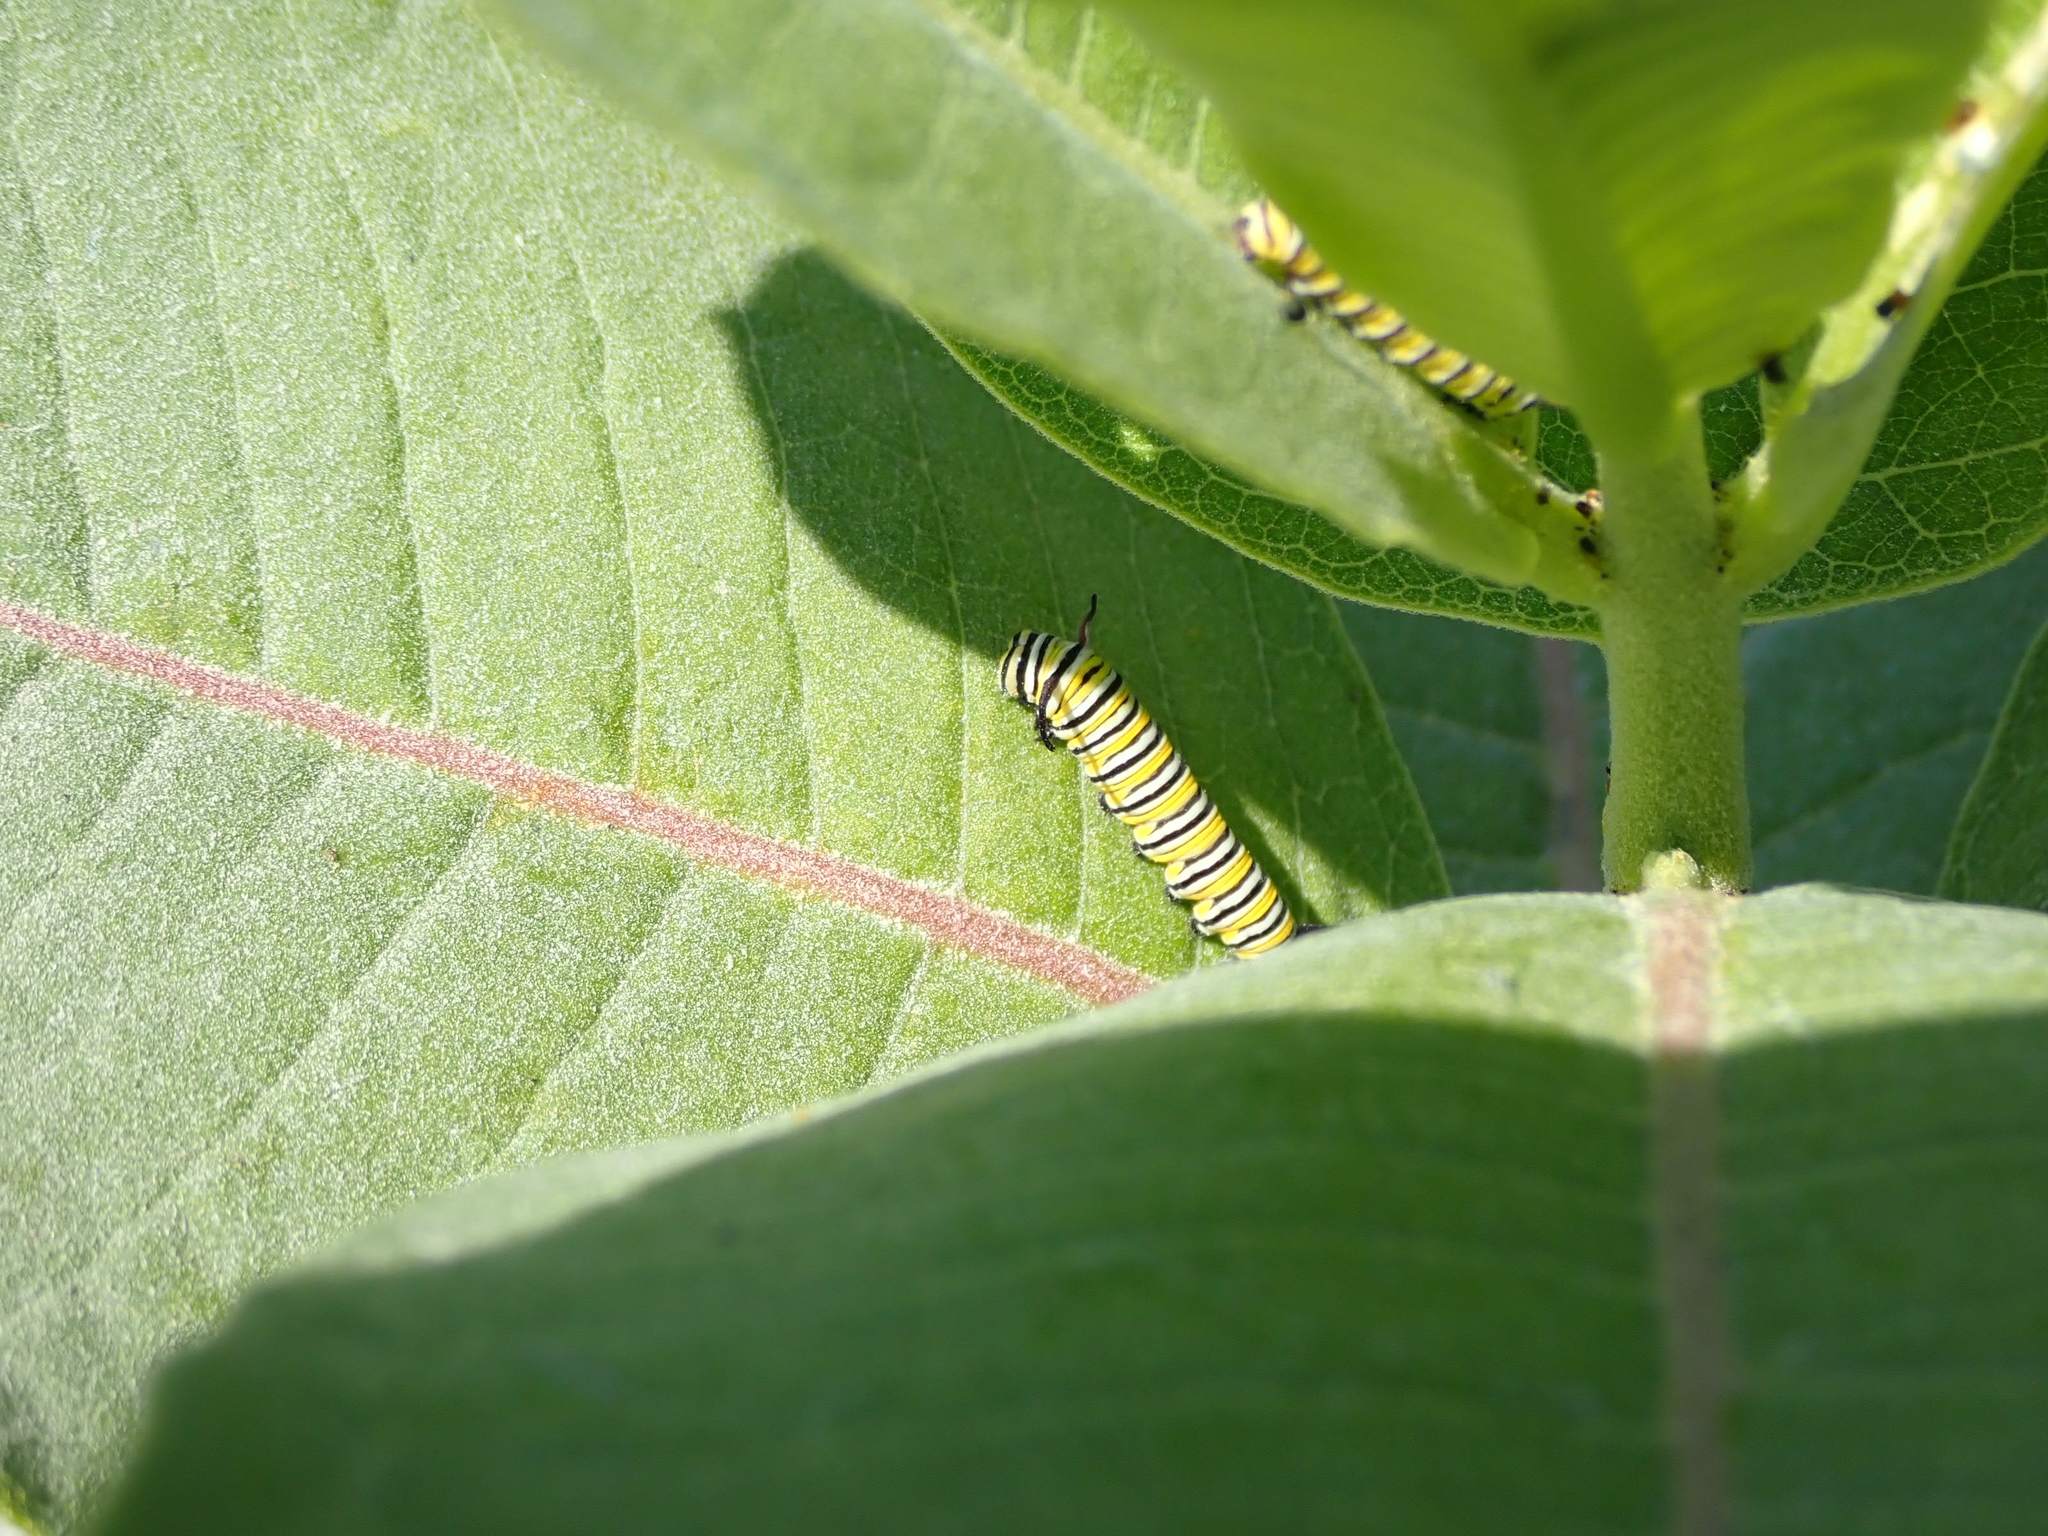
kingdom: Animalia
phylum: Arthropoda
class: Insecta
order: Lepidoptera
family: Nymphalidae
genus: Danaus
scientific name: Danaus plexippus
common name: Monarch
